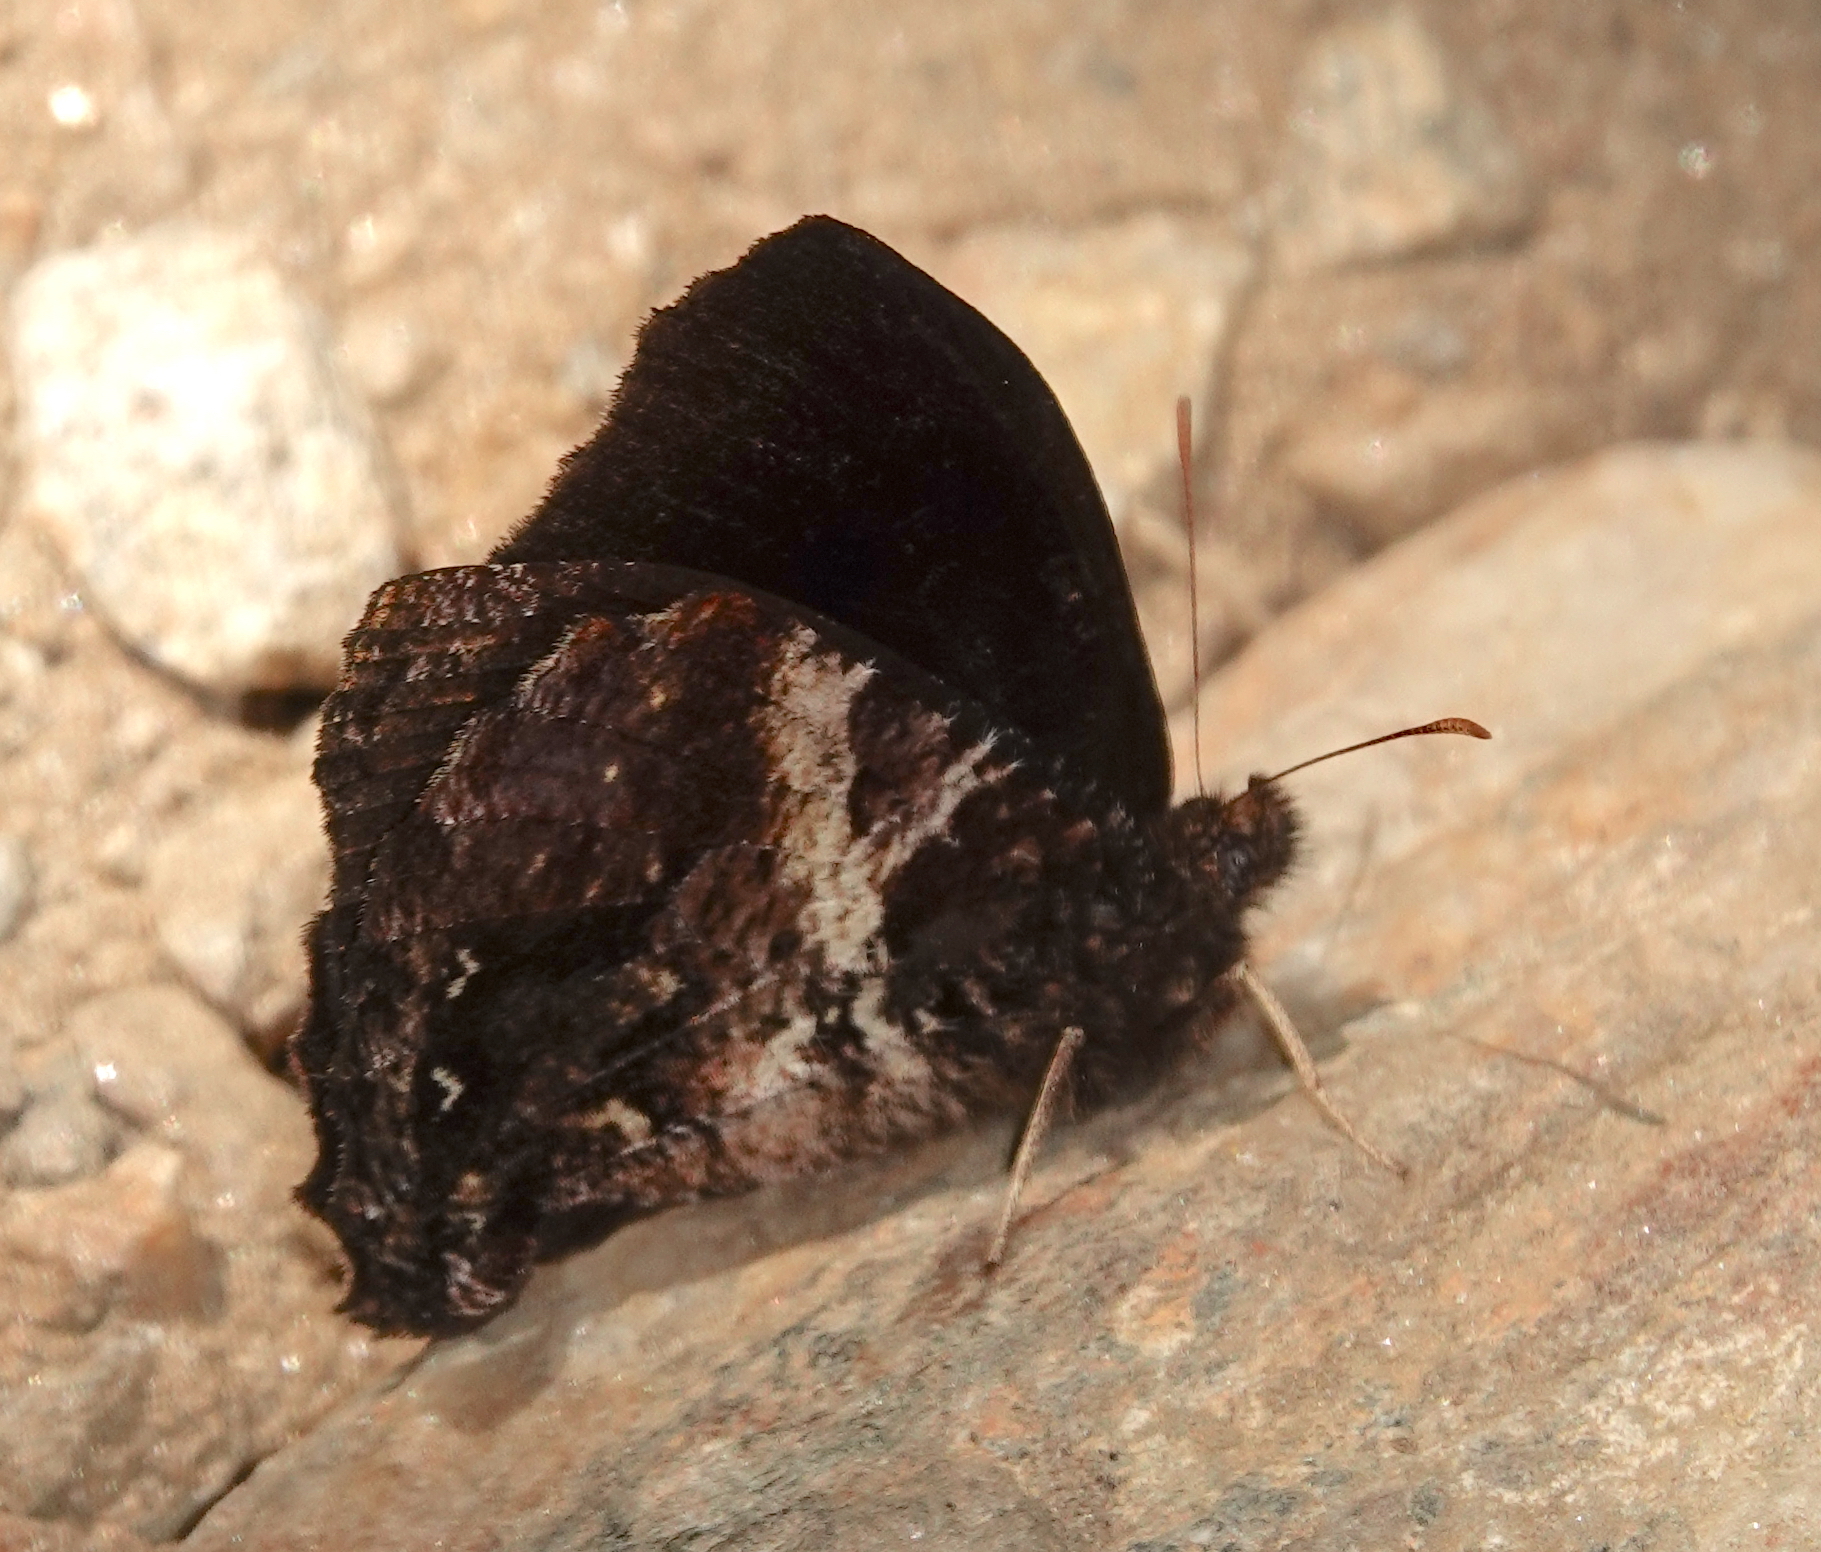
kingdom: Animalia
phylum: Arthropoda
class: Insecta
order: Lepidoptera
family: Nymphalidae
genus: Steroma
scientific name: Steroma polyxo
